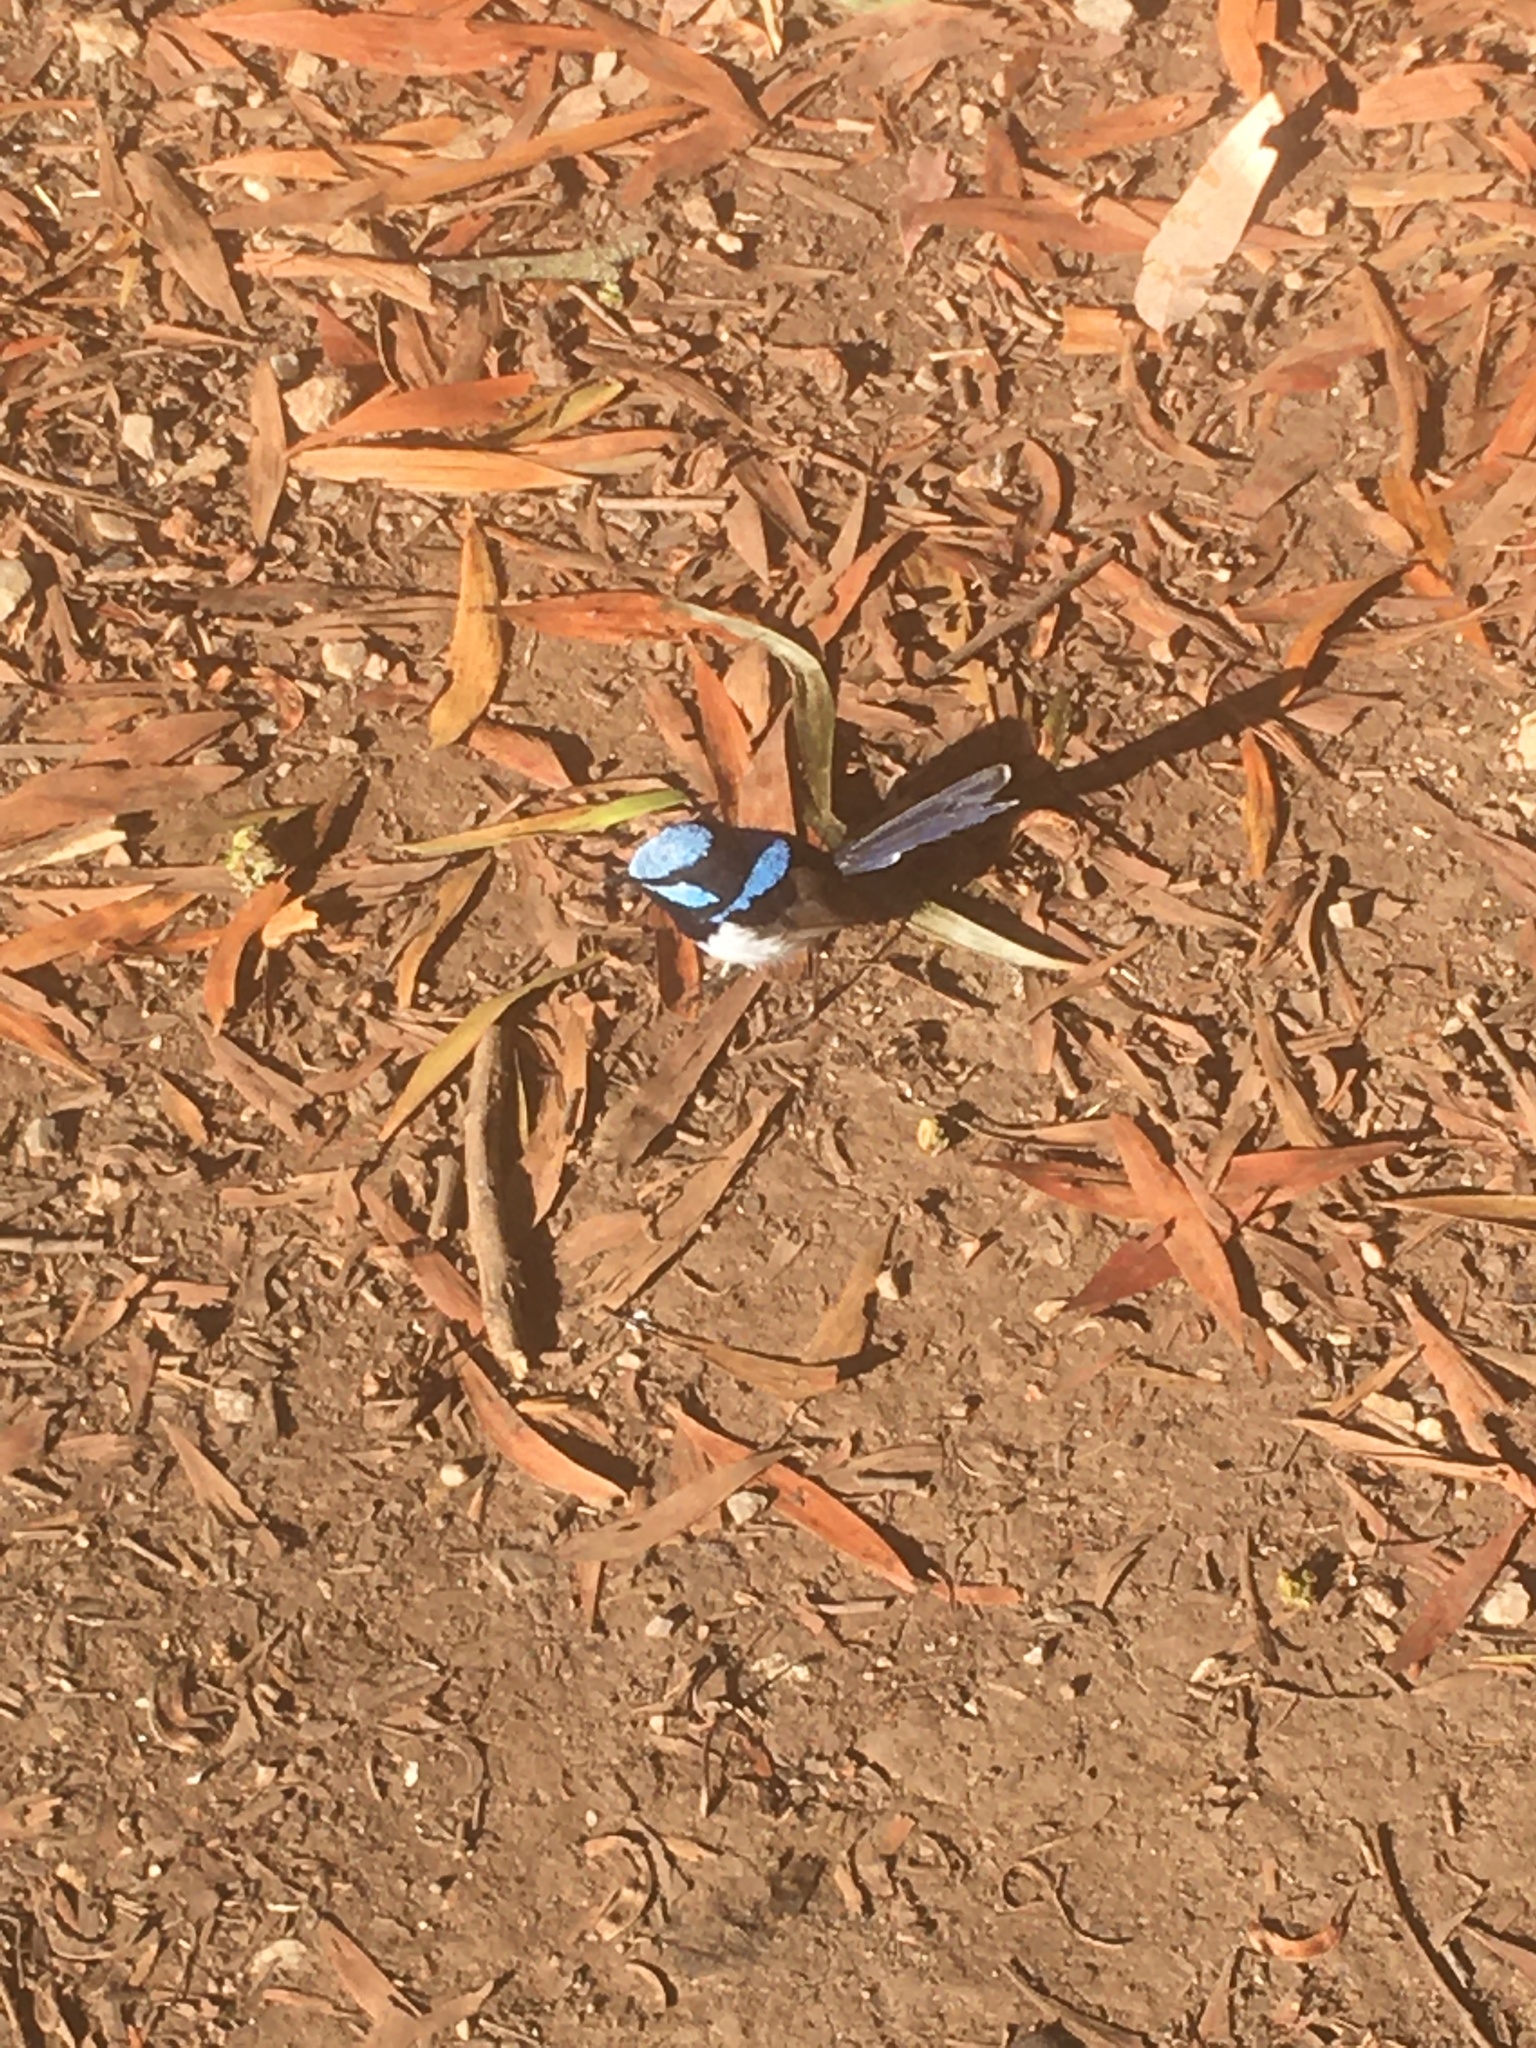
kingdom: Animalia
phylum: Chordata
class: Aves
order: Passeriformes
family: Maluridae
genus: Malurus
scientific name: Malurus cyaneus
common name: Superb fairywren
